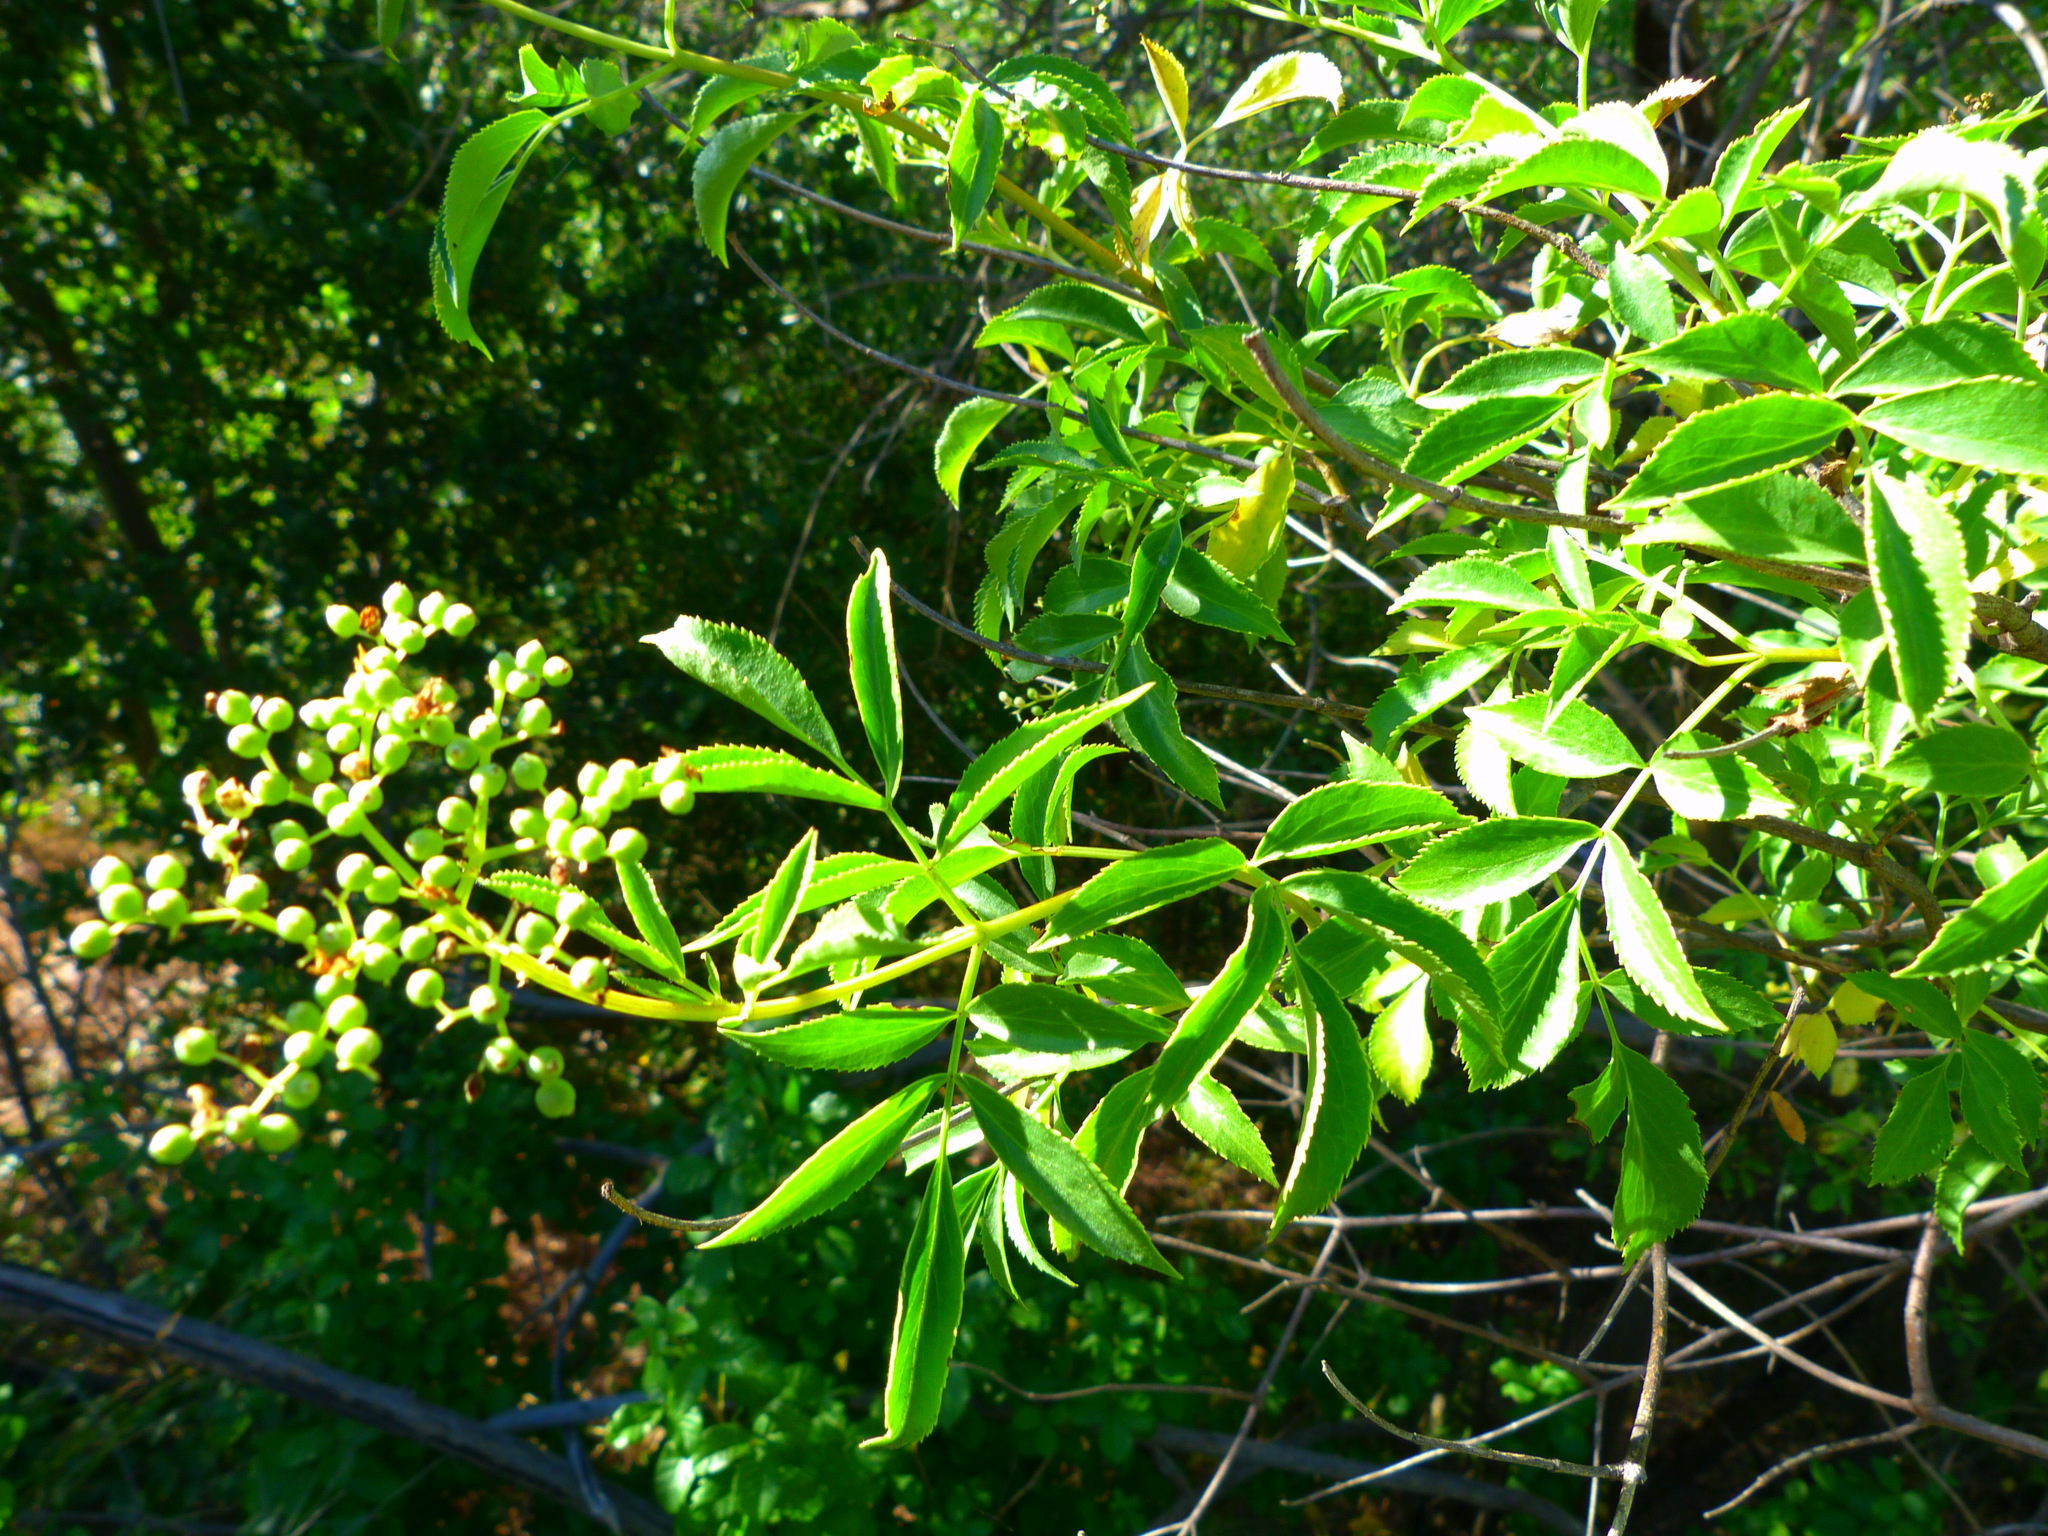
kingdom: Plantae
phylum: Tracheophyta
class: Magnoliopsida
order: Dipsacales
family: Viburnaceae
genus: Sambucus
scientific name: Sambucus cerulea
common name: Blue elder
